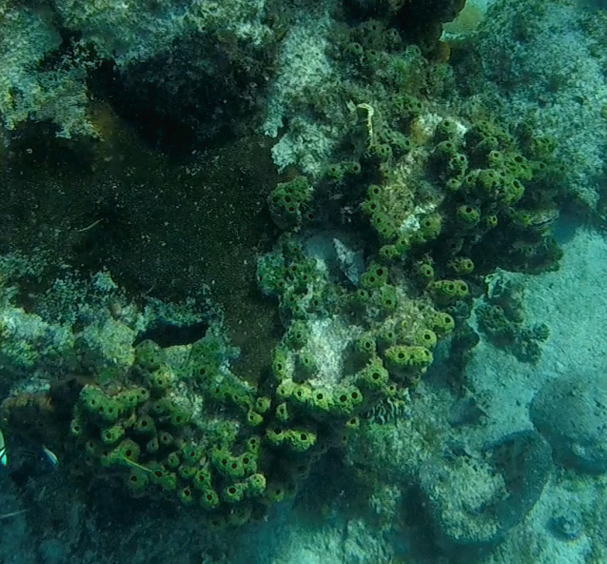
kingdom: Animalia
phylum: Porifera
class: Demospongiae
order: Verongiida
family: Aplysinidae
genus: Verongula
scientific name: Verongula rigida
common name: Pitted sponge
